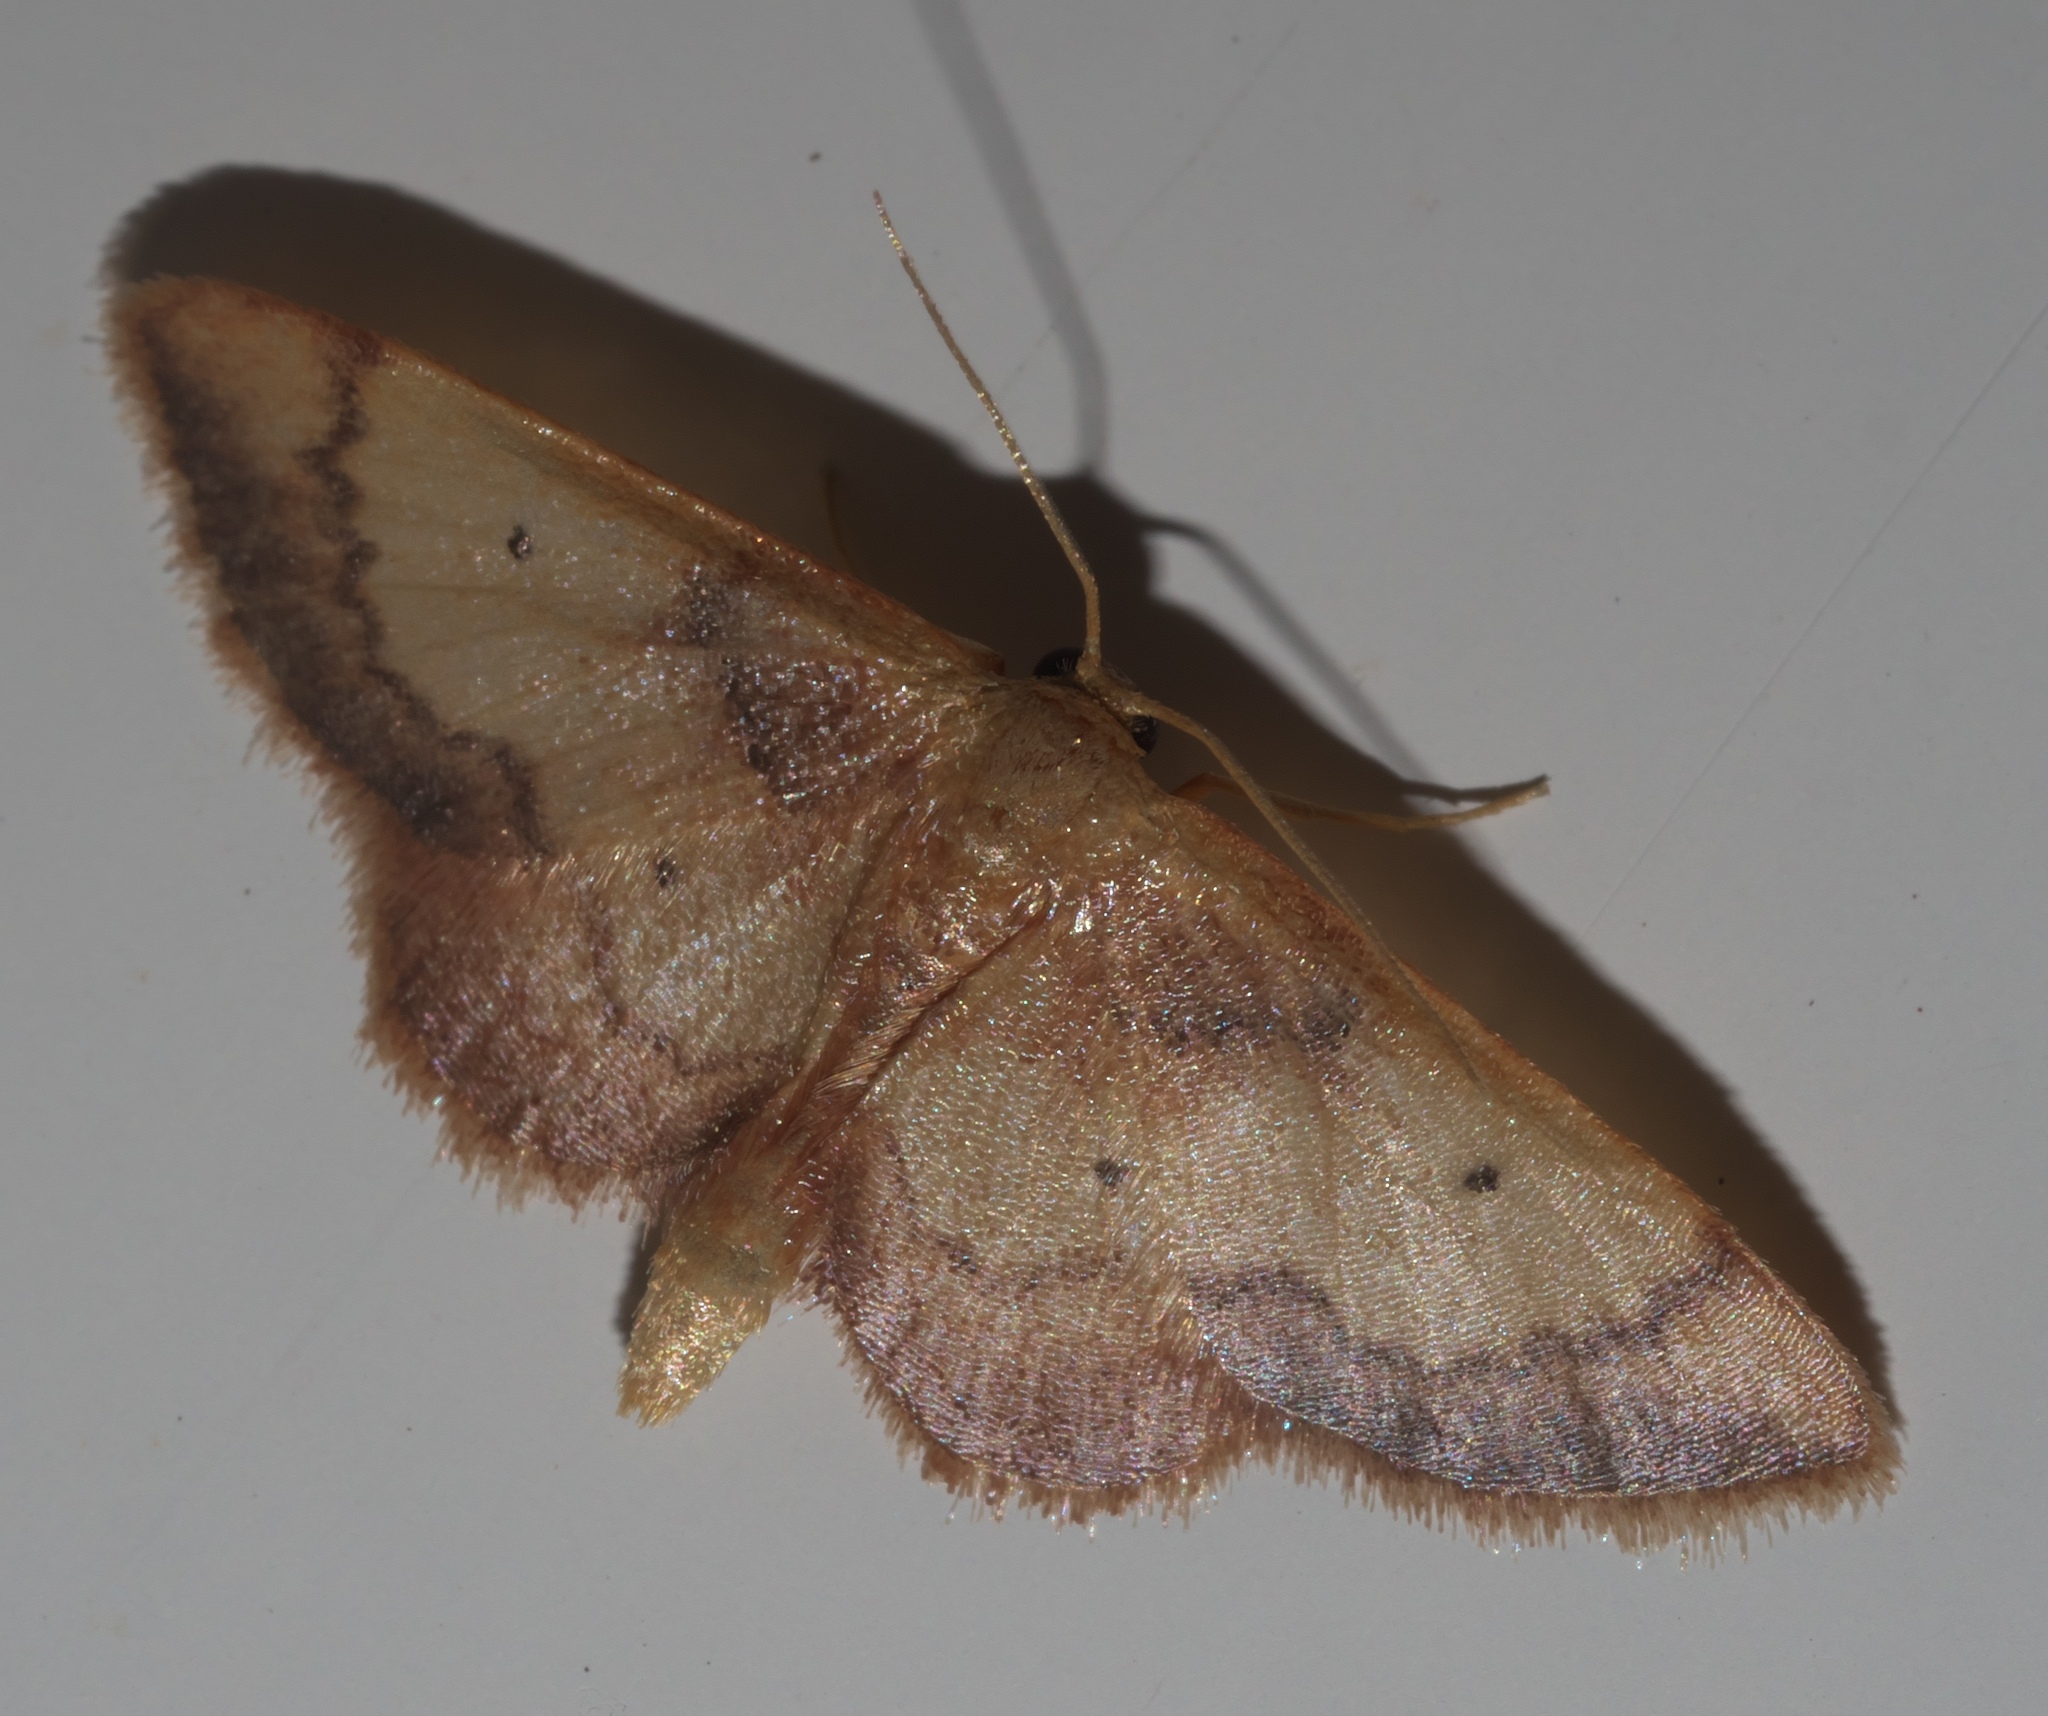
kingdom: Animalia
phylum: Arthropoda
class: Insecta
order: Lepidoptera
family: Geometridae
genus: Idaea
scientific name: Idaea demissaria
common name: Red-bordered wave
